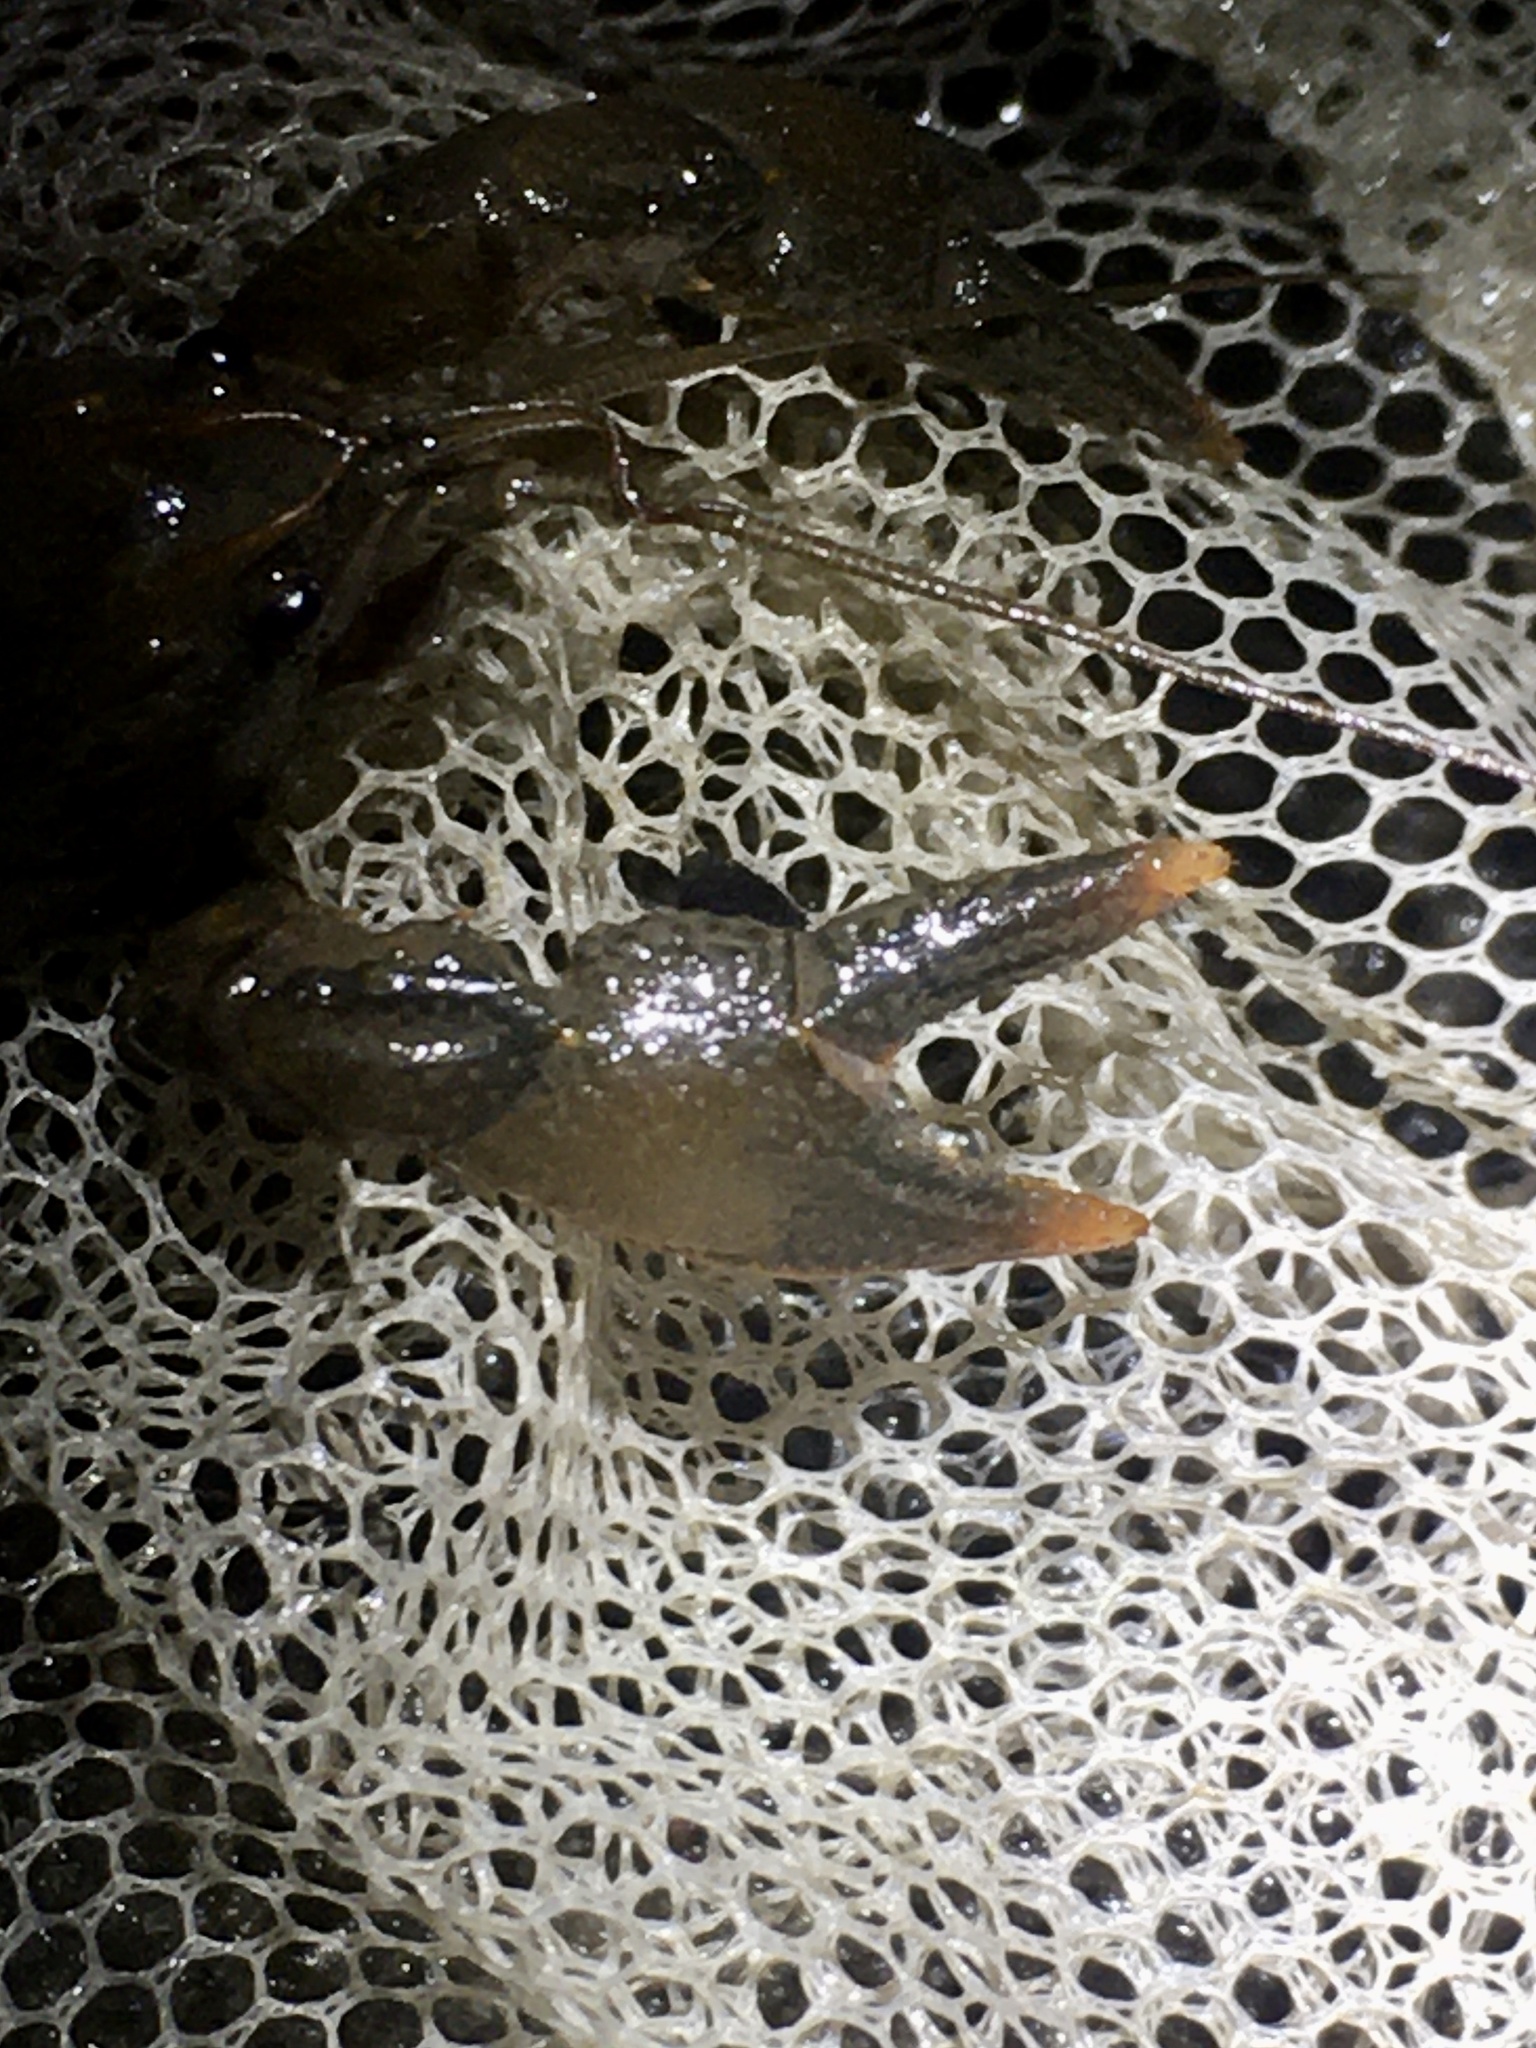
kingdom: Animalia
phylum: Arthropoda
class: Malacostraca
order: Decapoda
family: Cambaridae
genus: Lacunicambarus
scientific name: Lacunicambarus diogenes
